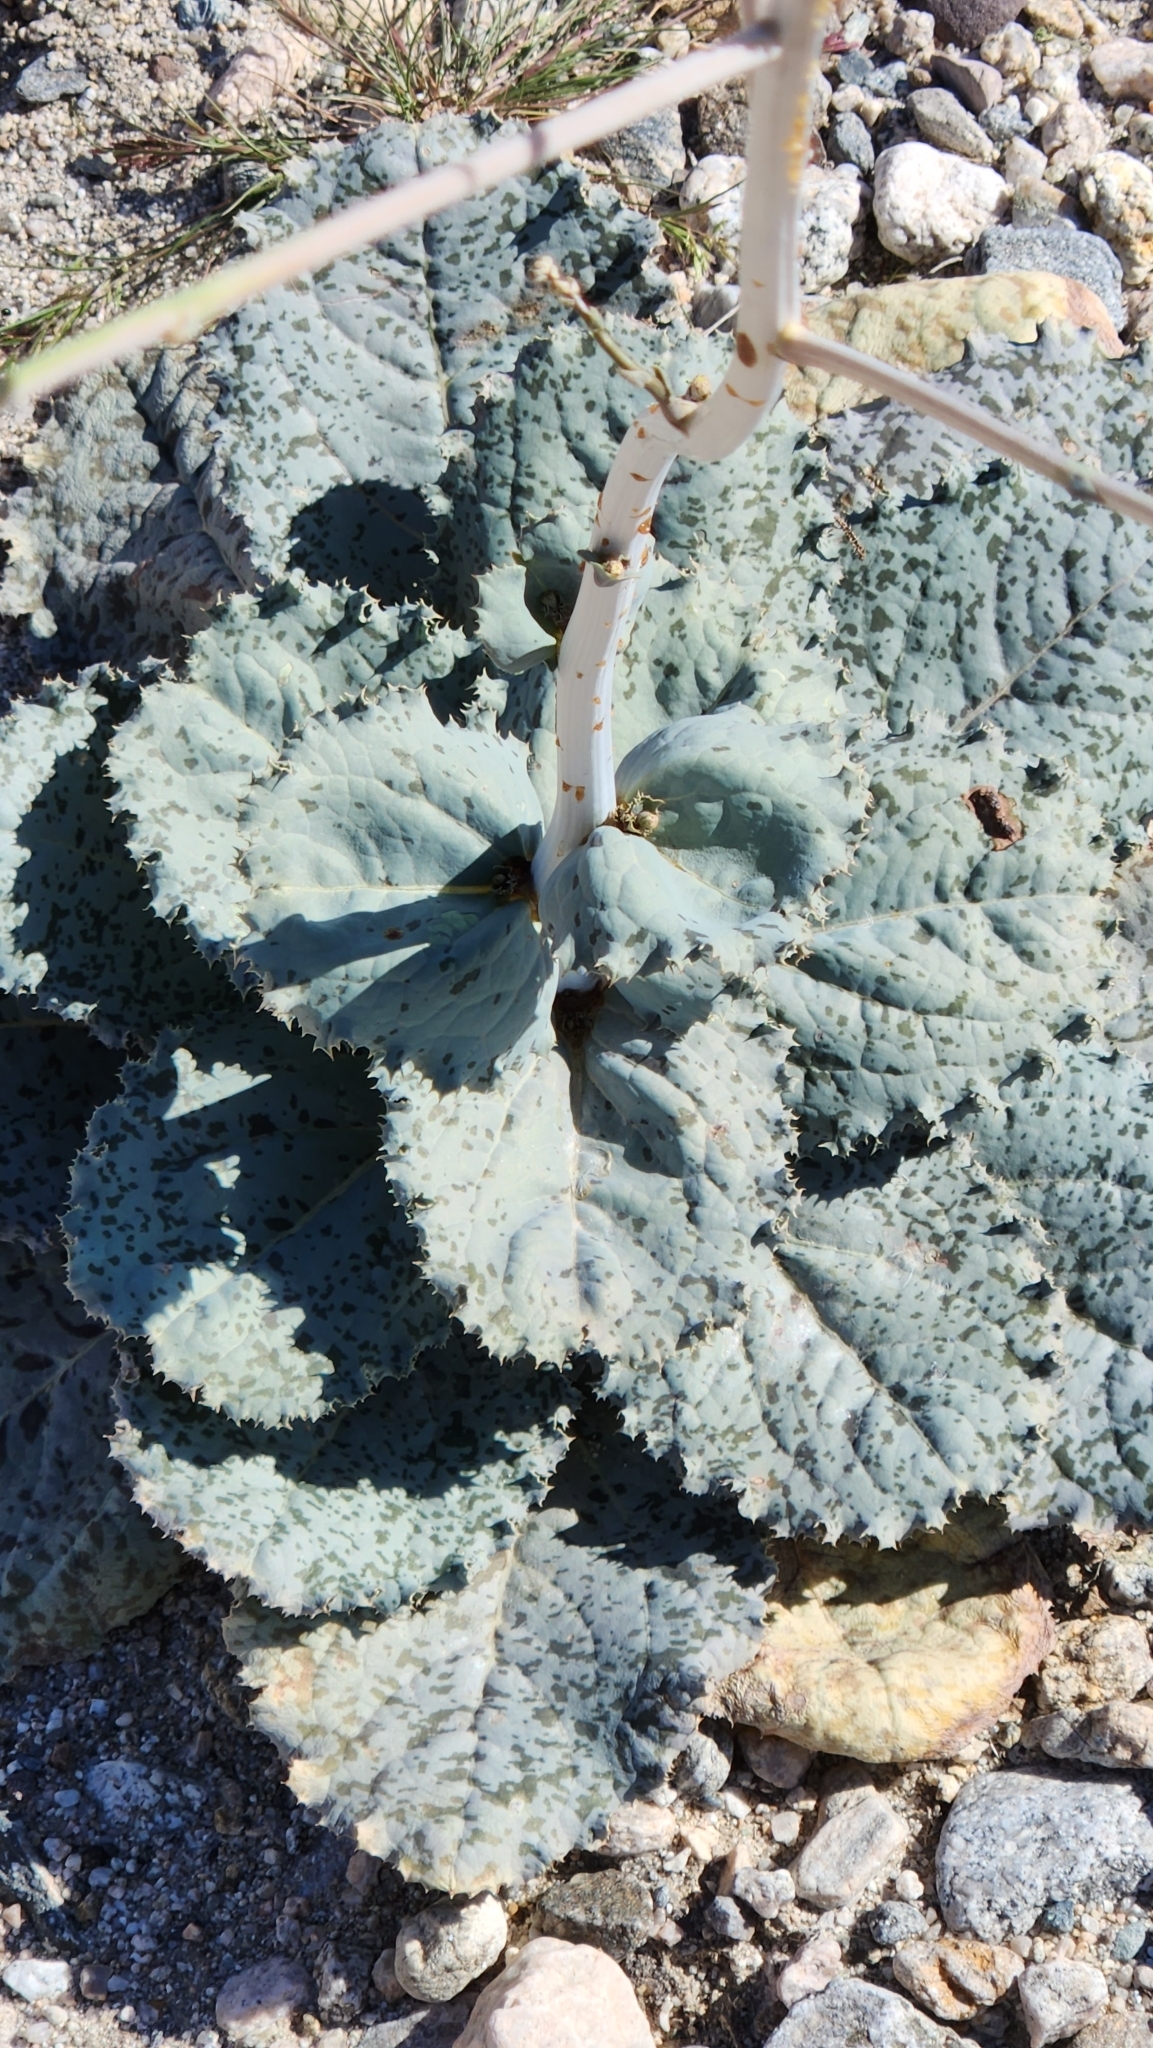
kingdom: Plantae
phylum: Tracheophyta
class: Magnoliopsida
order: Asterales
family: Asteraceae
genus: Atrichoseris
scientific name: Atrichoseris platyphylla
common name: Tobaccoweed
